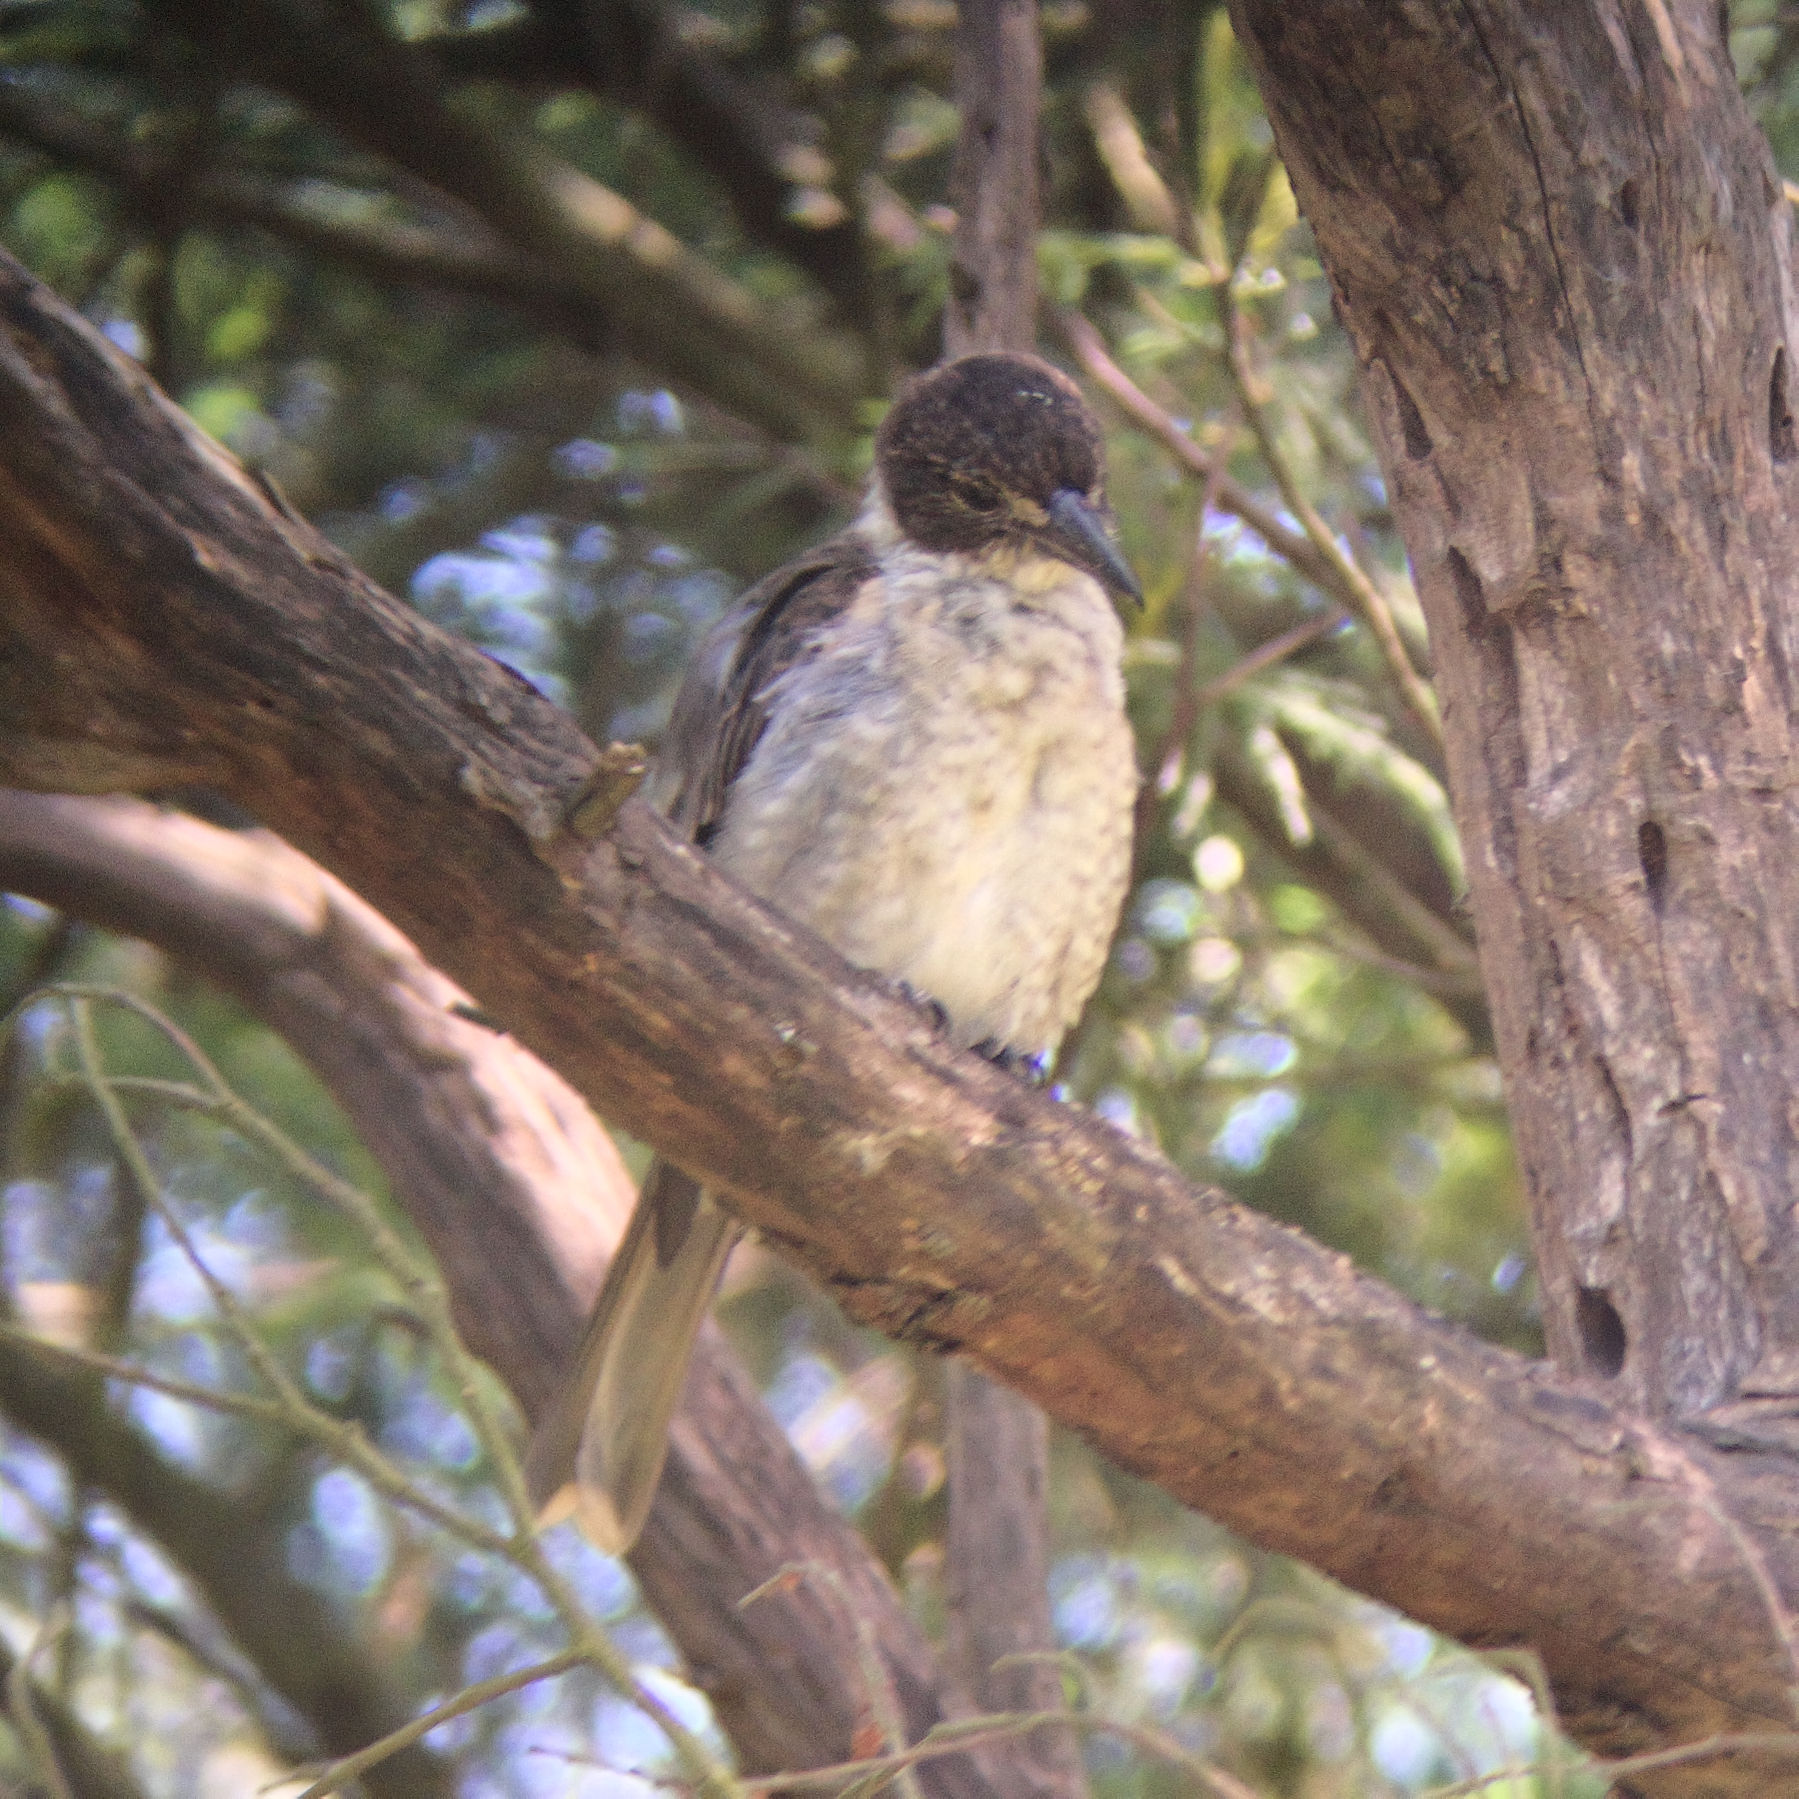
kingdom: Animalia
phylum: Chordata
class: Aves
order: Passeriformes
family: Cracticidae
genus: Cracticus
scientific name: Cracticus torquatus
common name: Grey butcherbird
